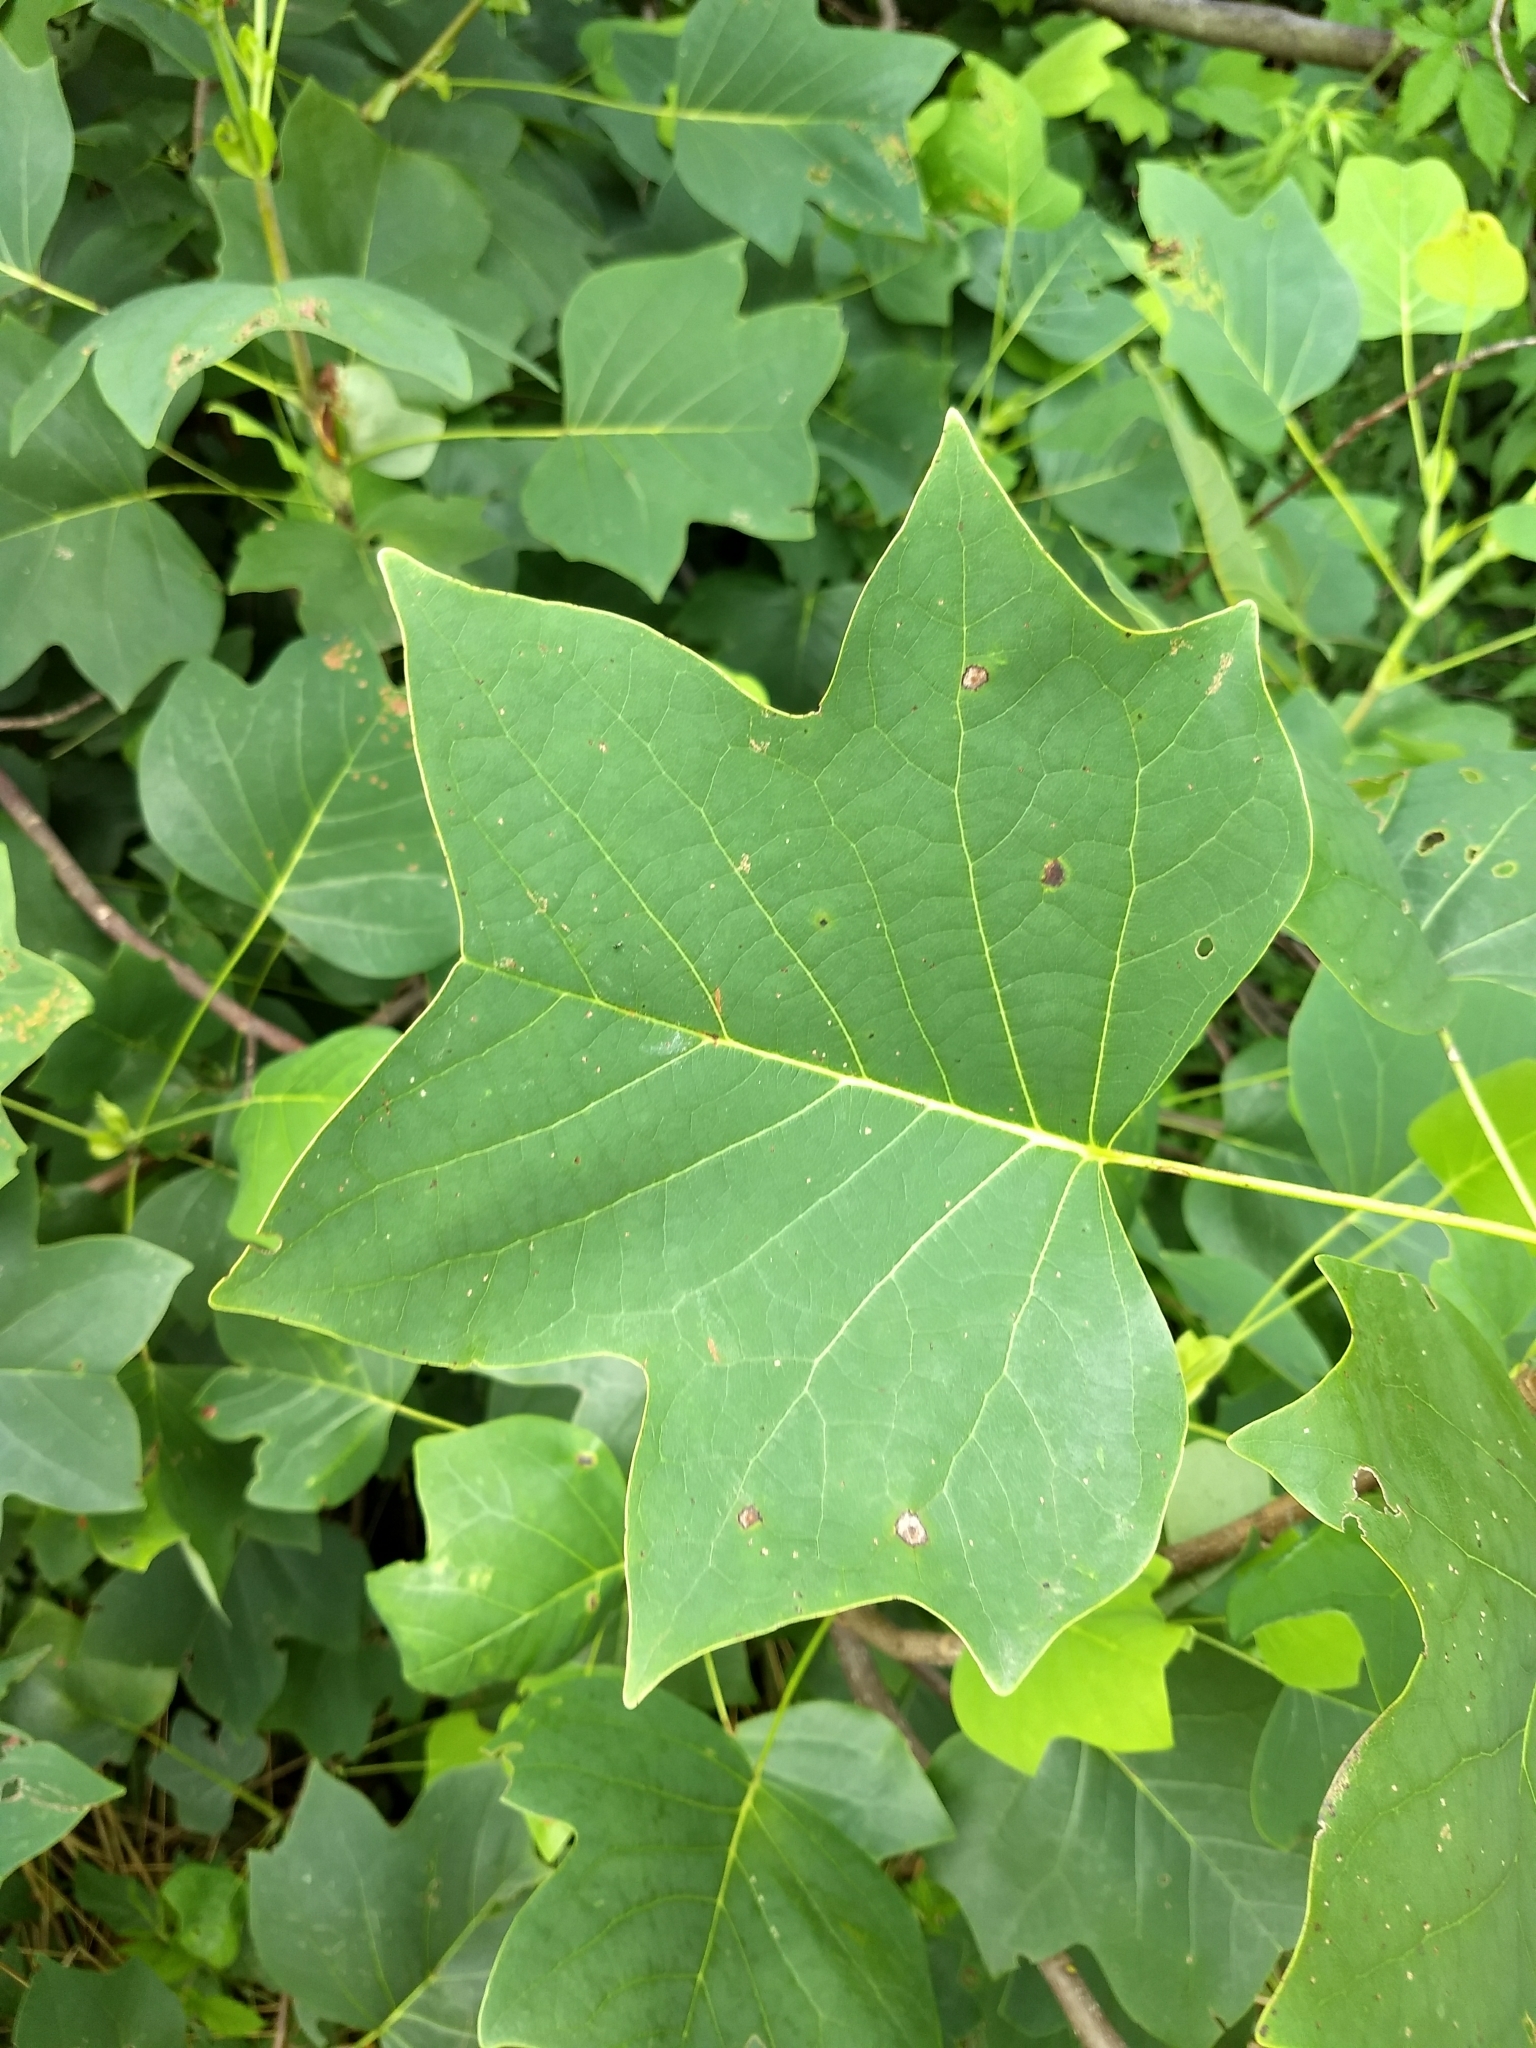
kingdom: Plantae
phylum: Tracheophyta
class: Magnoliopsida
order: Magnoliales
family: Magnoliaceae
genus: Liriodendron
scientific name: Liriodendron tulipifera
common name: Tulip tree
